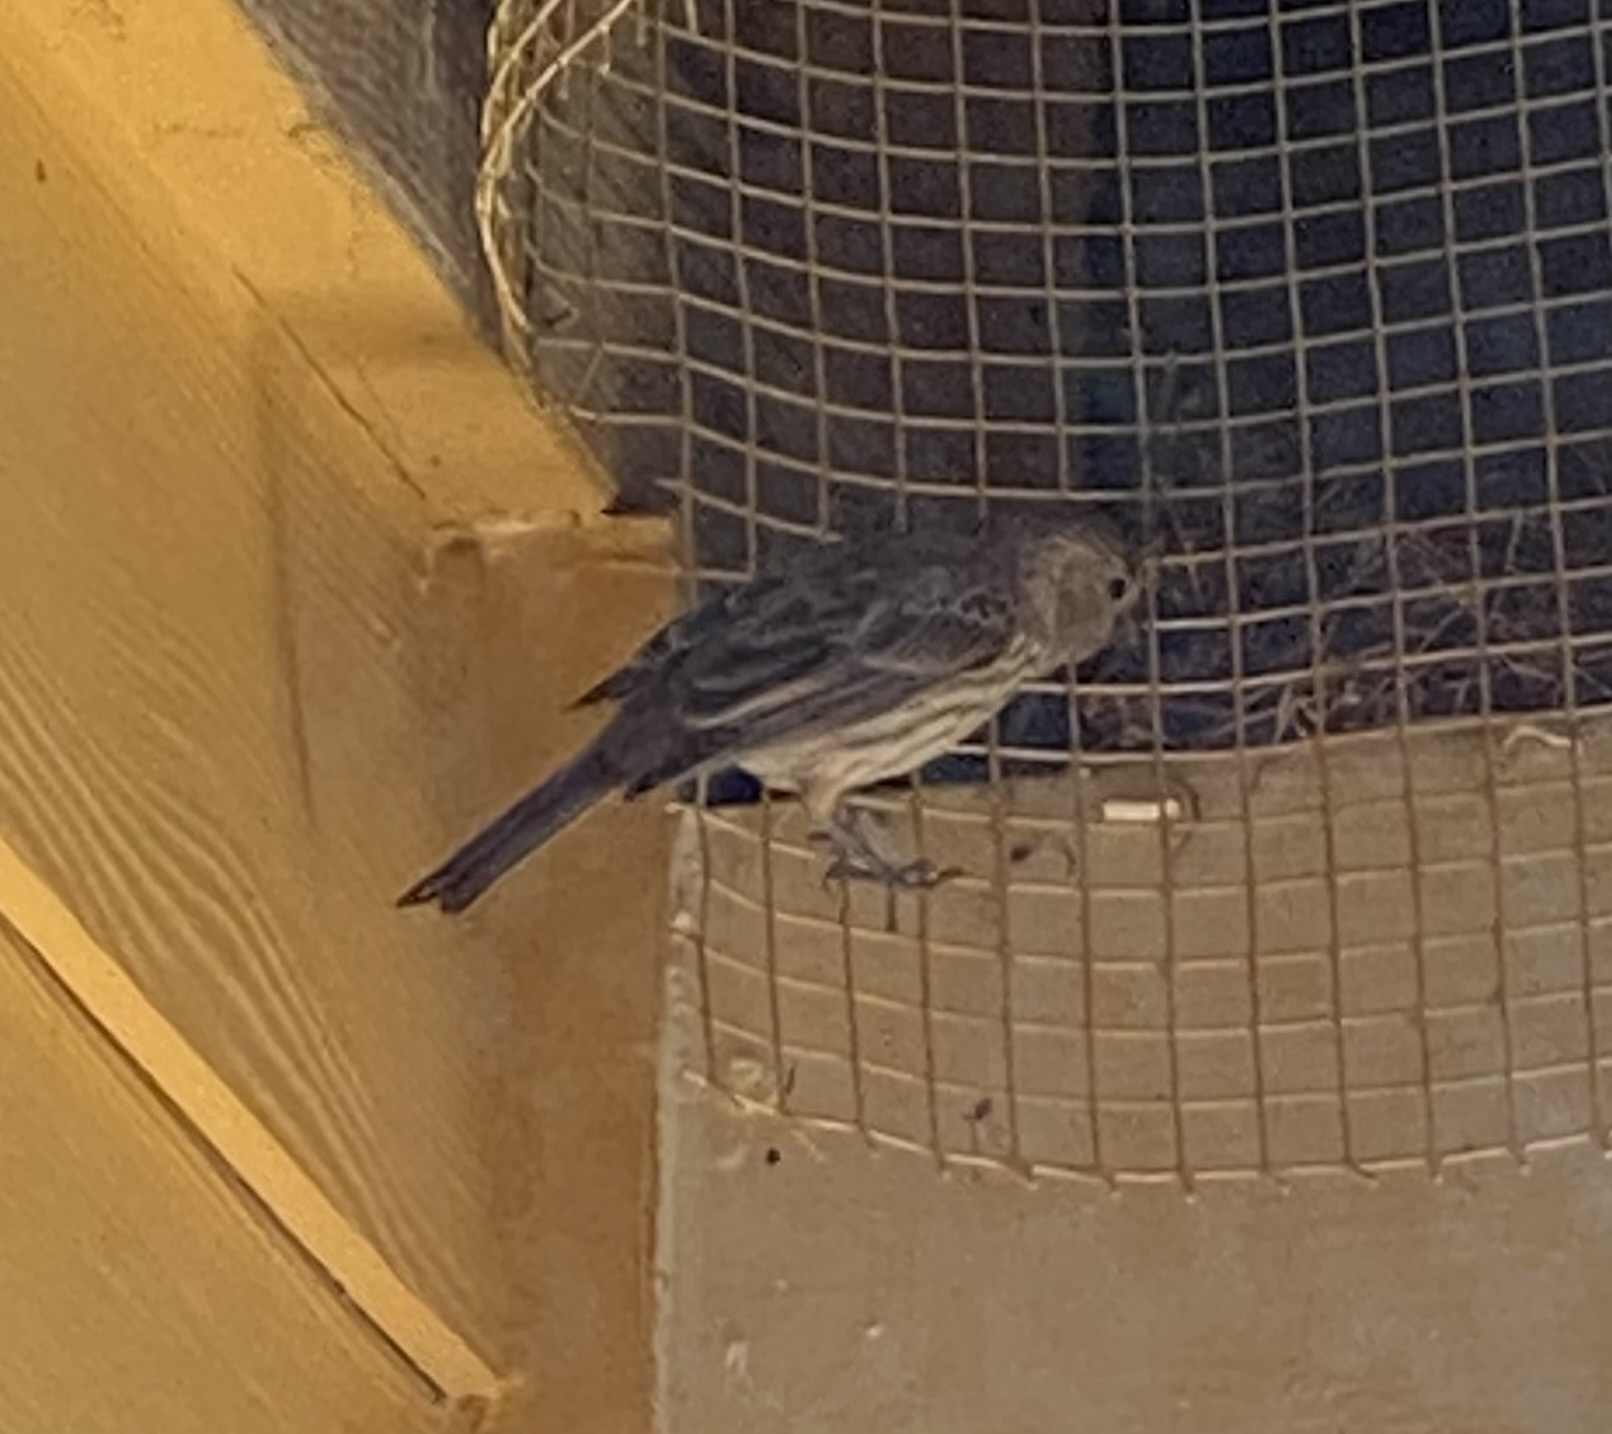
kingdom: Animalia
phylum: Chordata
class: Aves
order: Passeriformes
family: Fringillidae
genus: Haemorhous
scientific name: Haemorhous mexicanus
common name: House finch
